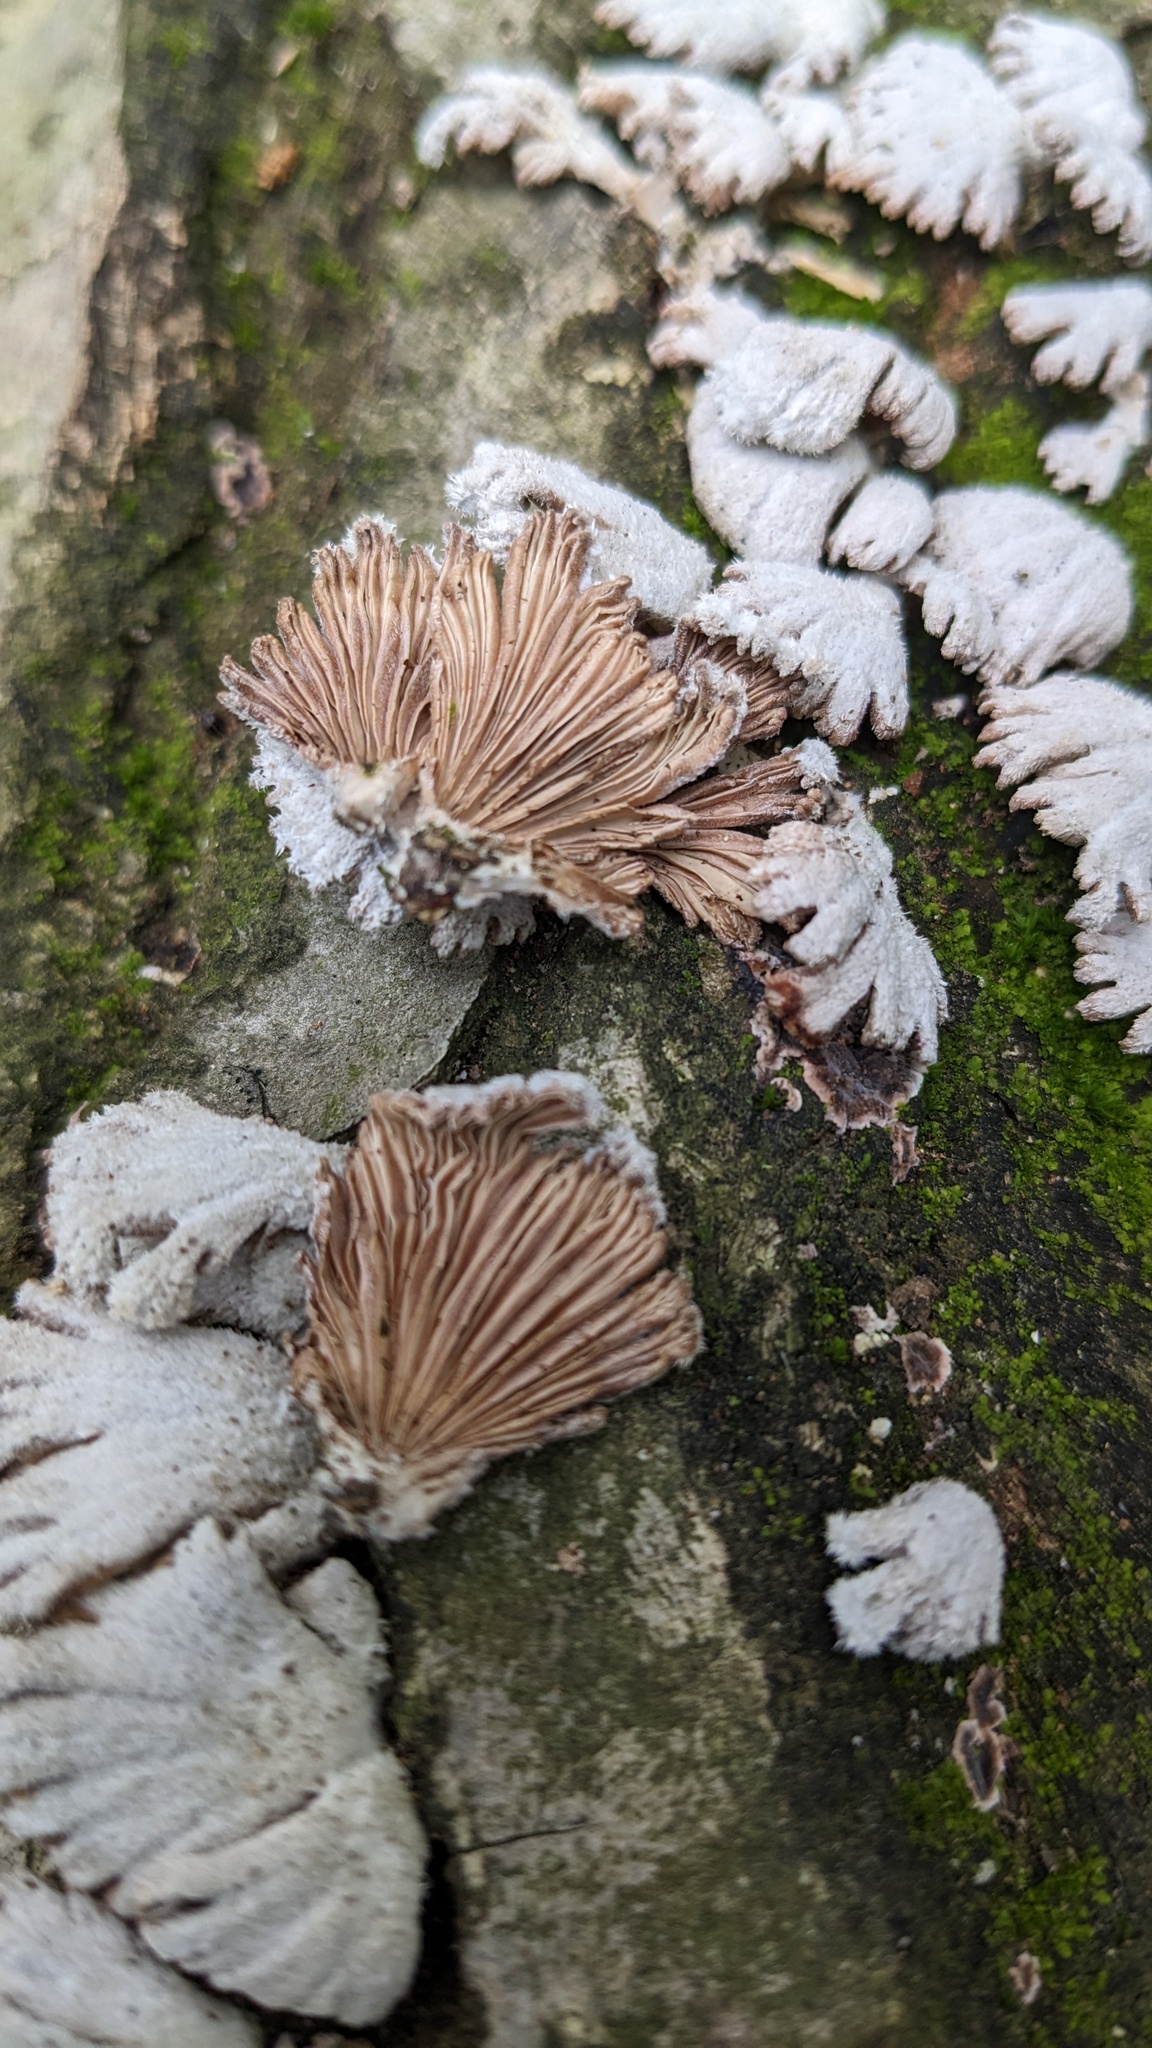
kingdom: Fungi
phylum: Basidiomycota
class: Agaricomycetes
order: Agaricales
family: Schizophyllaceae
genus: Schizophyllum
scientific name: Schizophyllum commune
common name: Common porecrust
